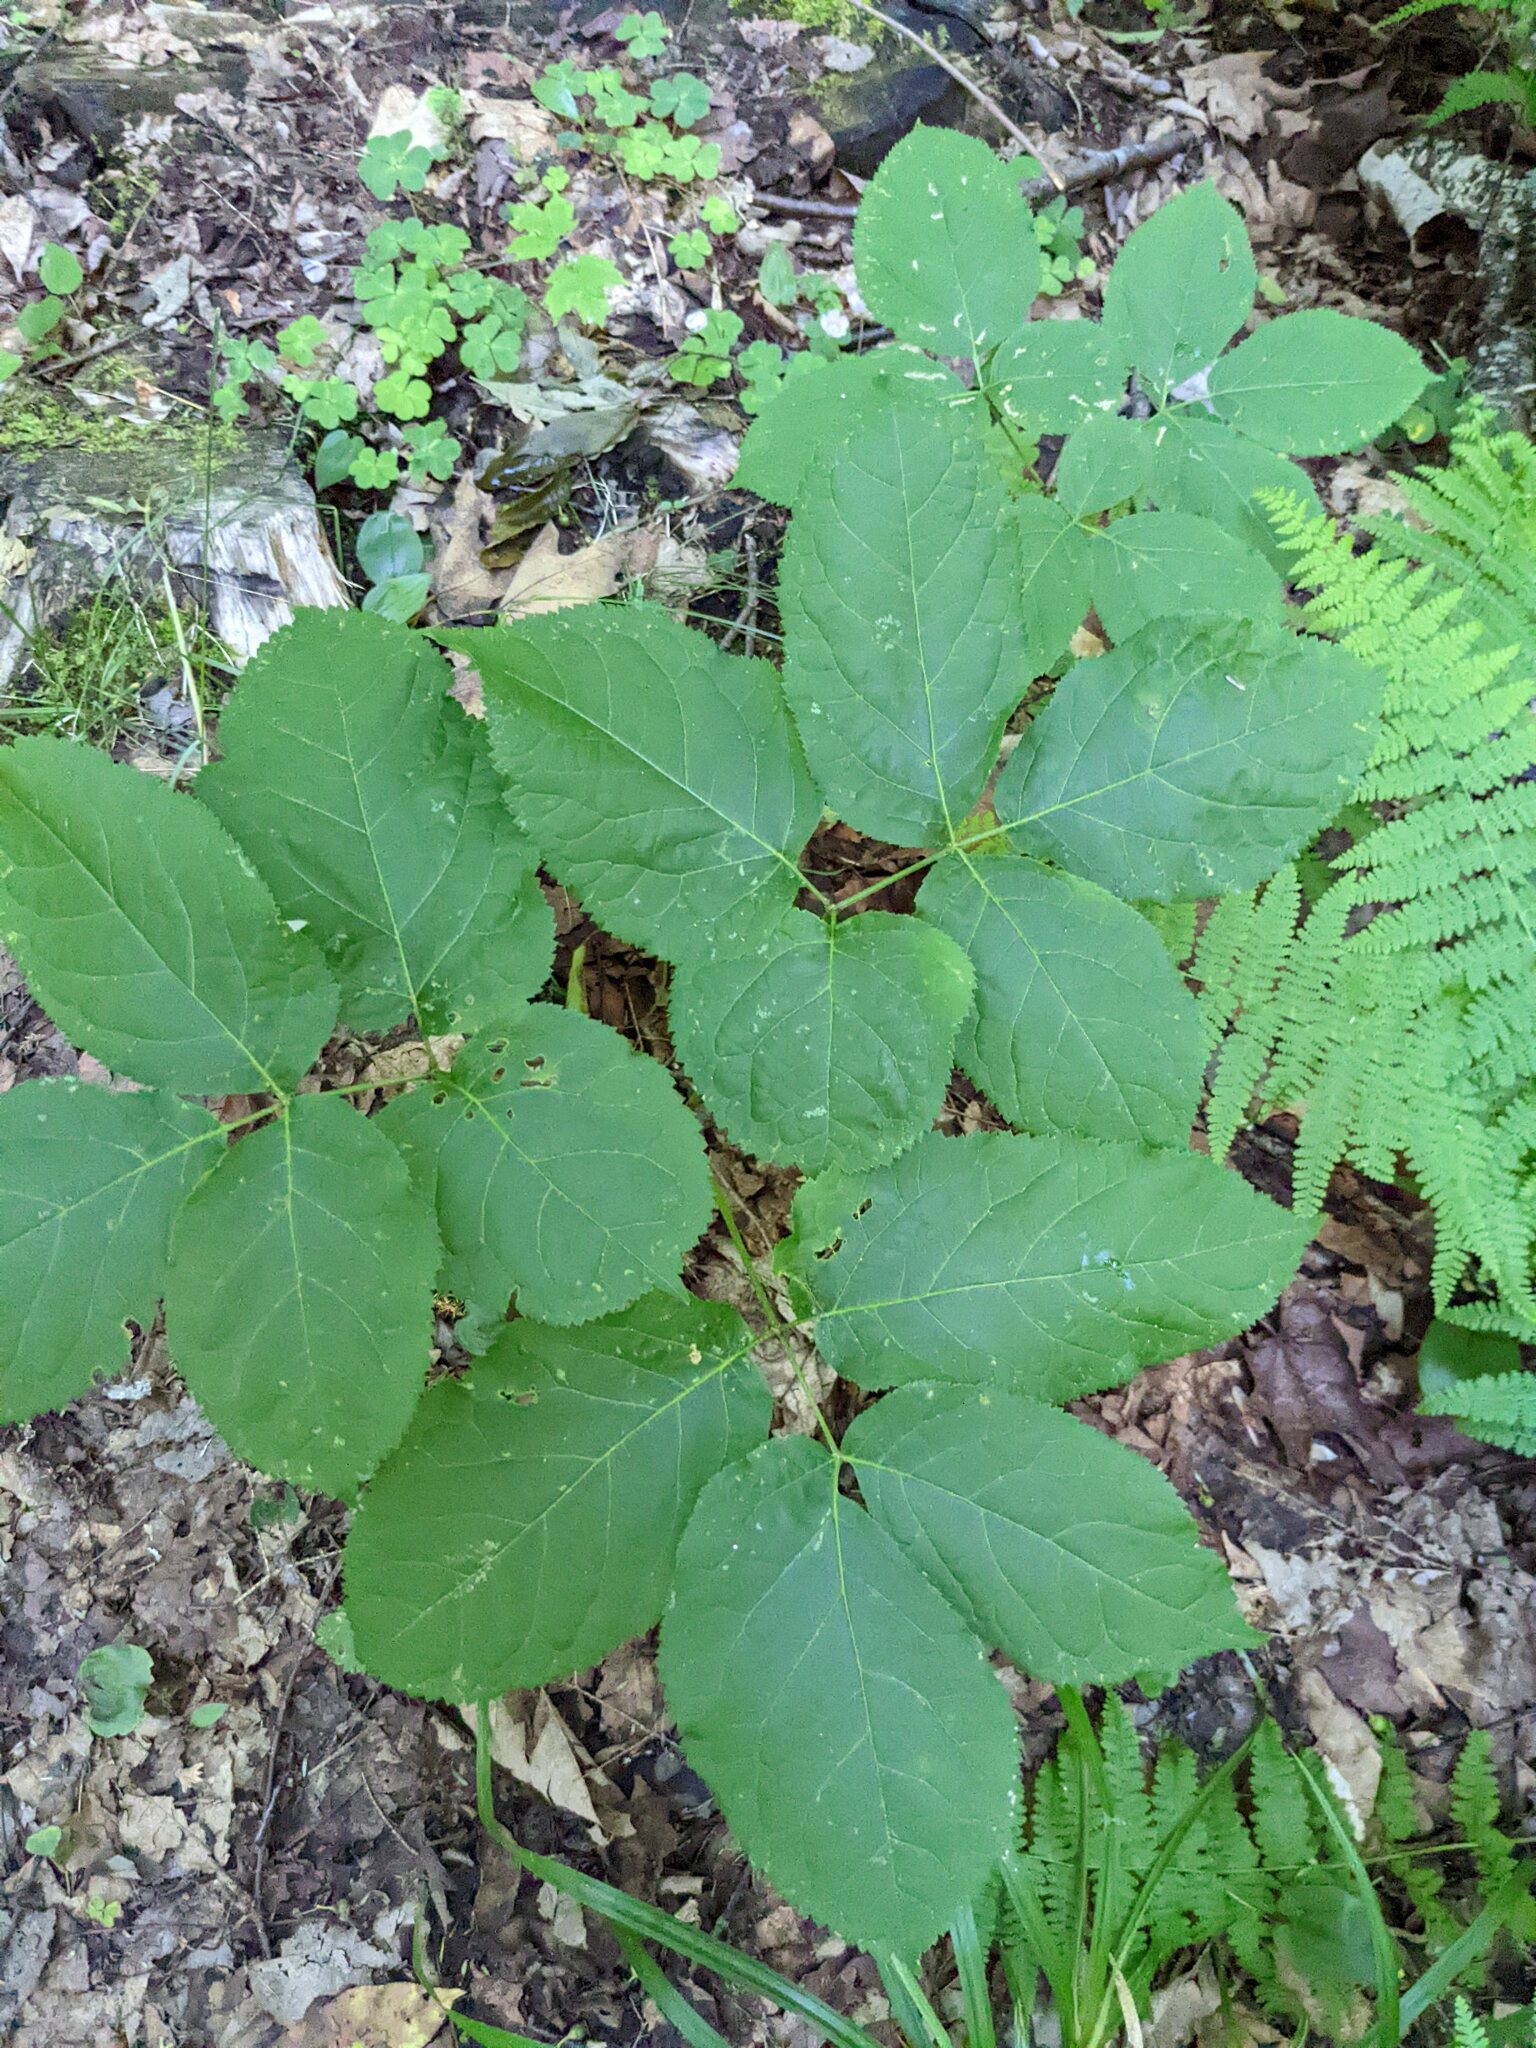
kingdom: Plantae
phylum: Tracheophyta
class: Magnoliopsida
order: Apiales
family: Araliaceae
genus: Aralia
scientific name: Aralia nudicaulis
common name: Wild sarsaparilla
